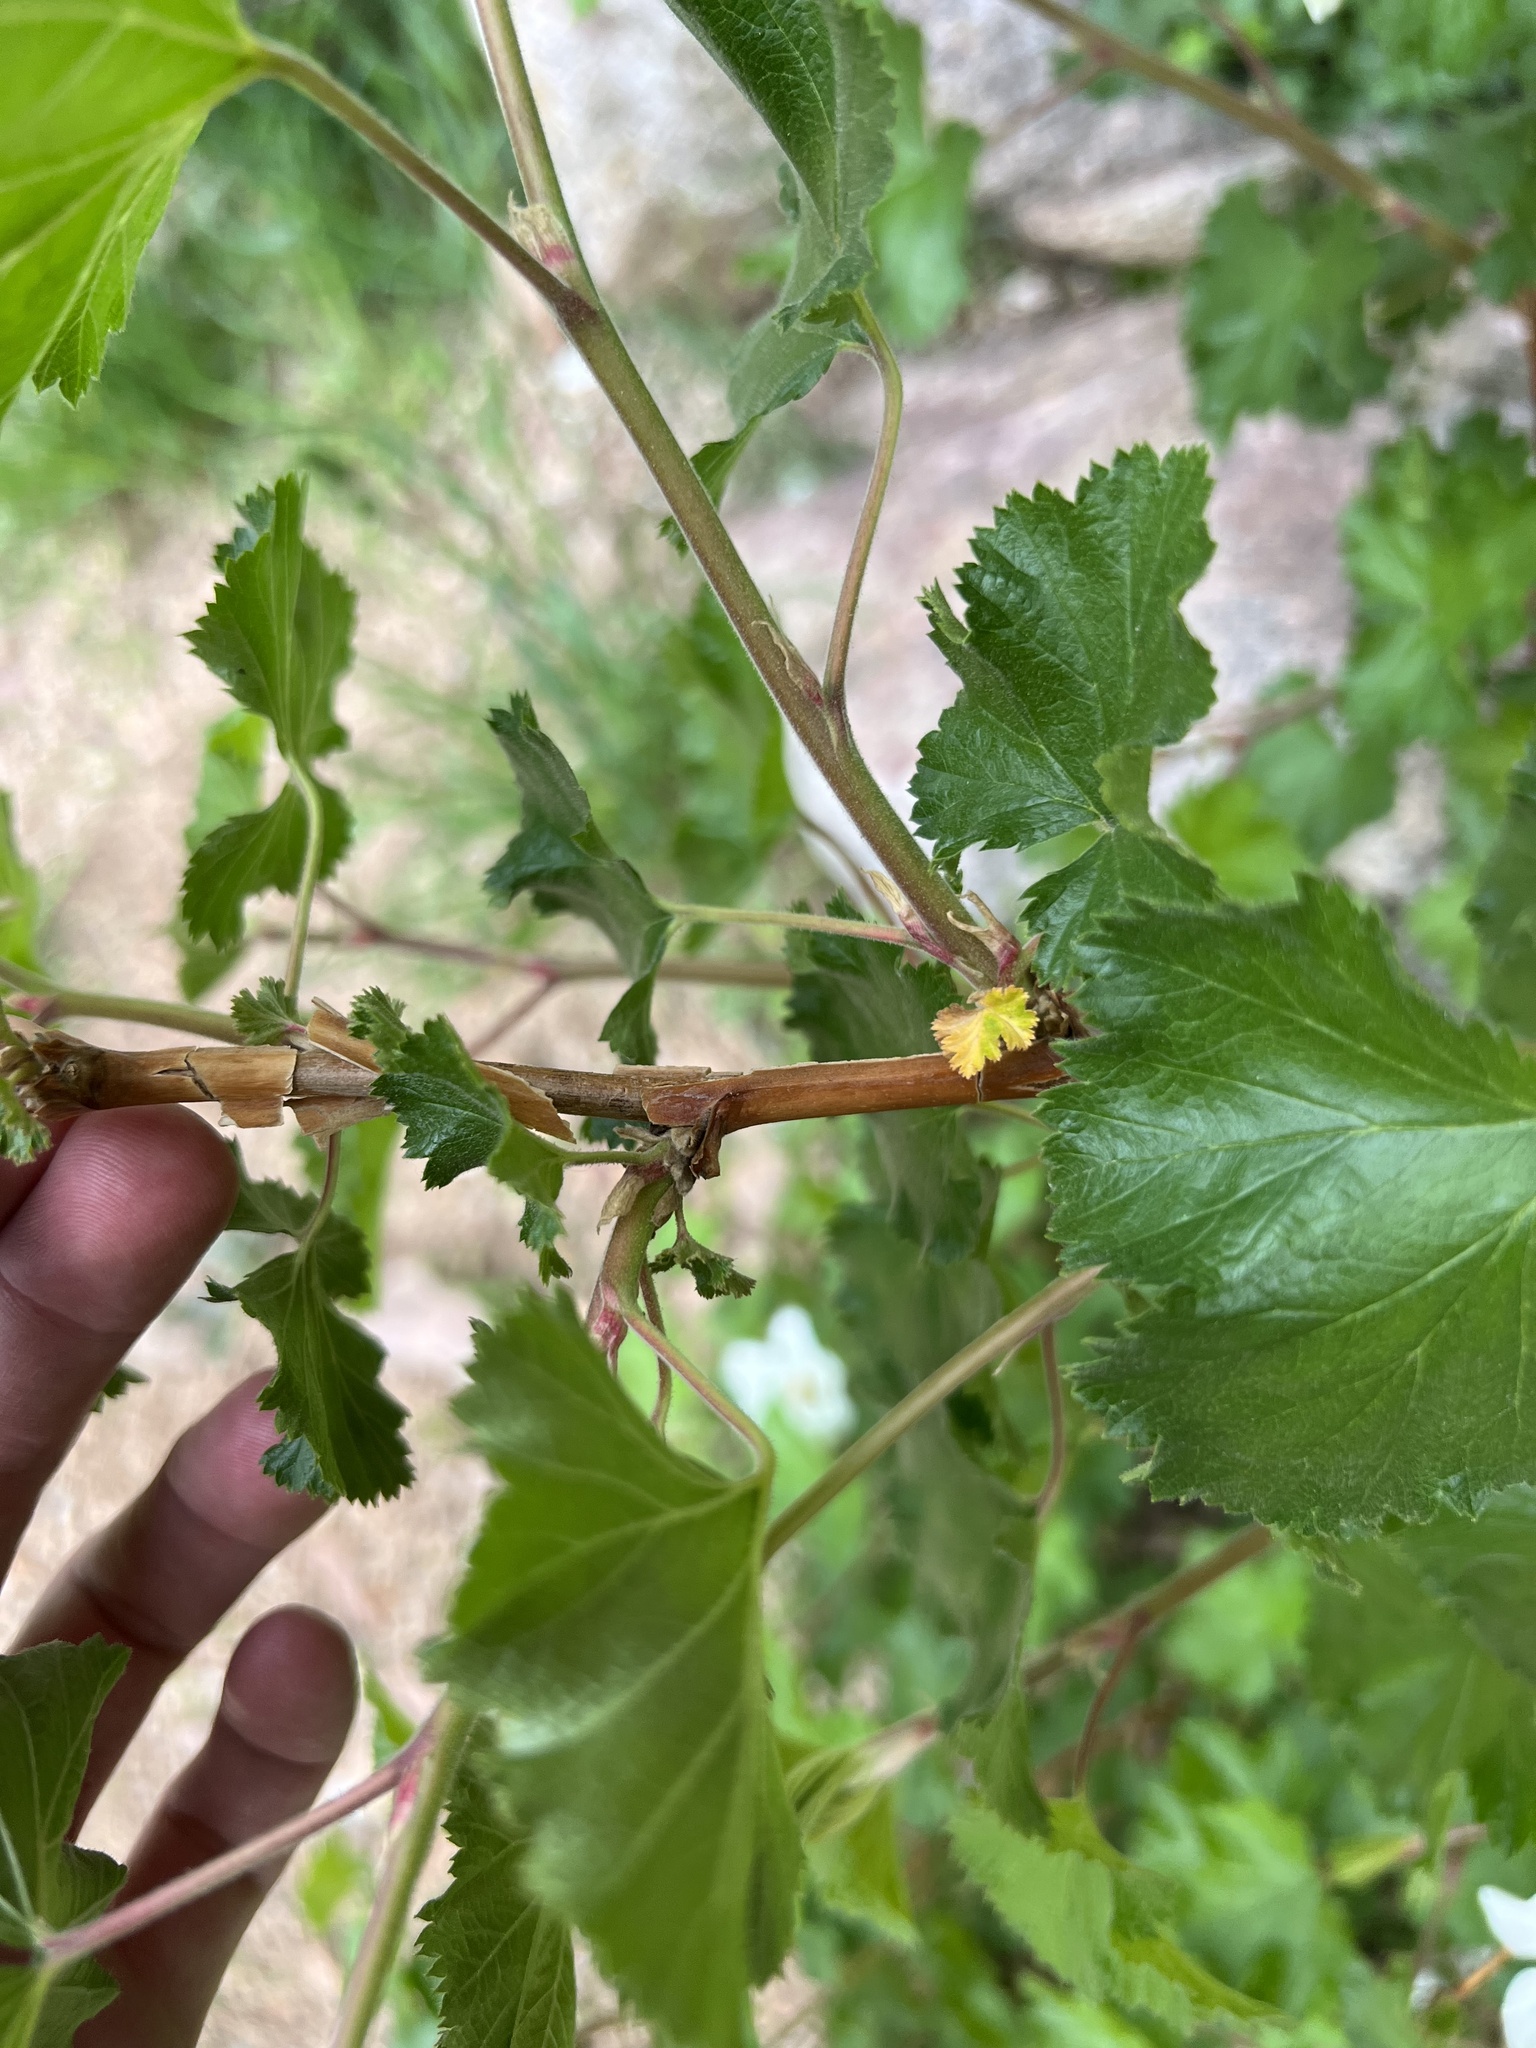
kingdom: Plantae
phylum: Tracheophyta
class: Magnoliopsida
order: Rosales
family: Rosaceae
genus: Rubus
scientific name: Rubus deliciosus
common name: Rocky mountain raspberry
